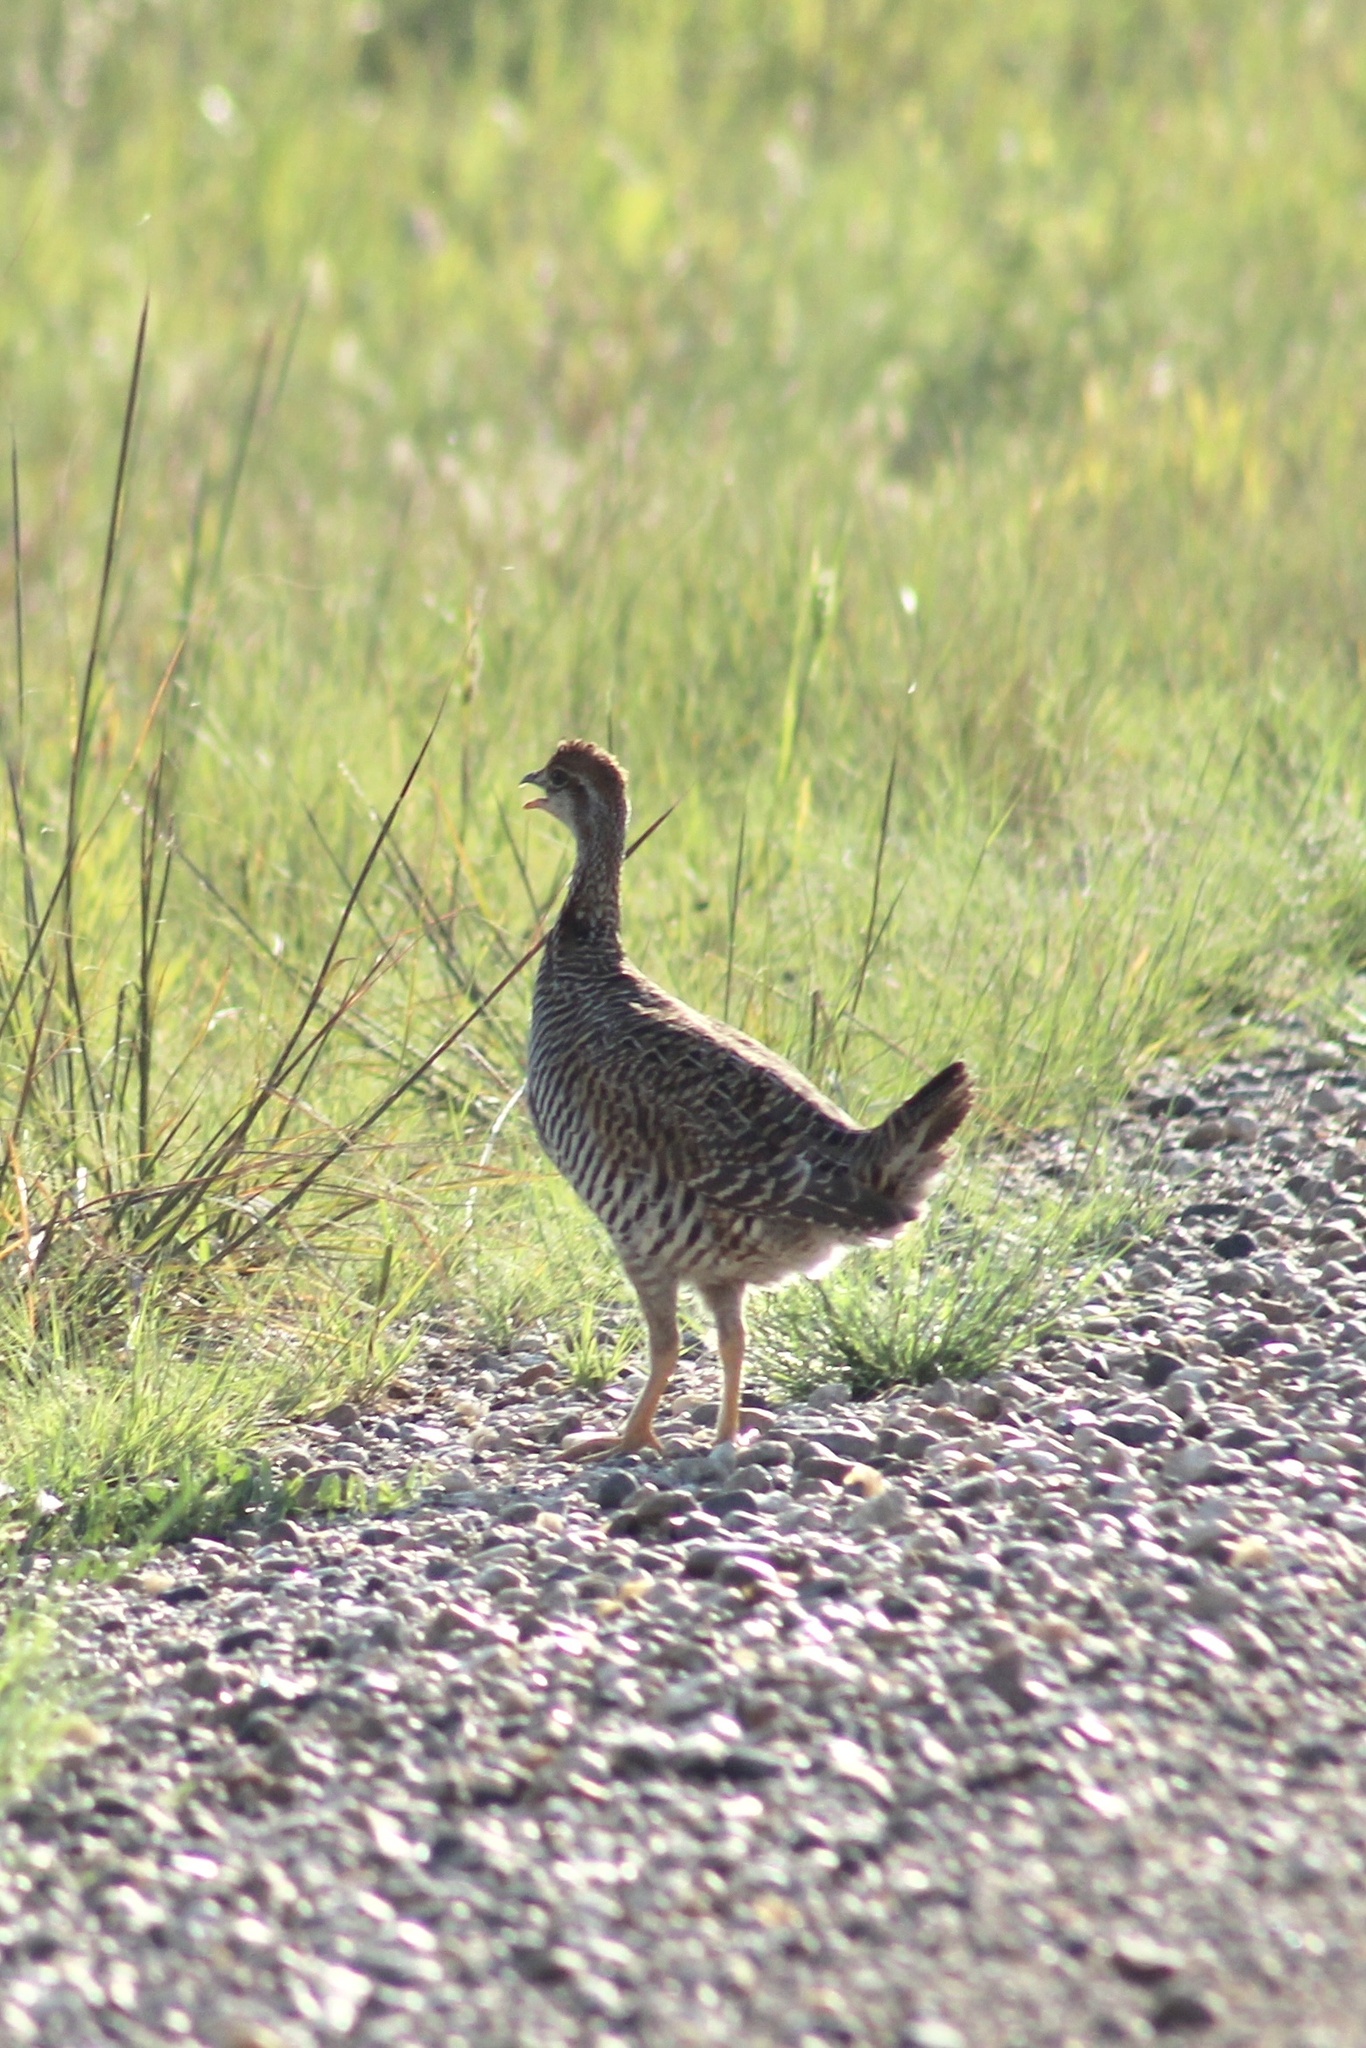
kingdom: Animalia
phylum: Chordata
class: Aves
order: Galliformes
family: Phasianidae
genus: Tympanuchus
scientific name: Tympanuchus cupido
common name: Greater prairie chicken
